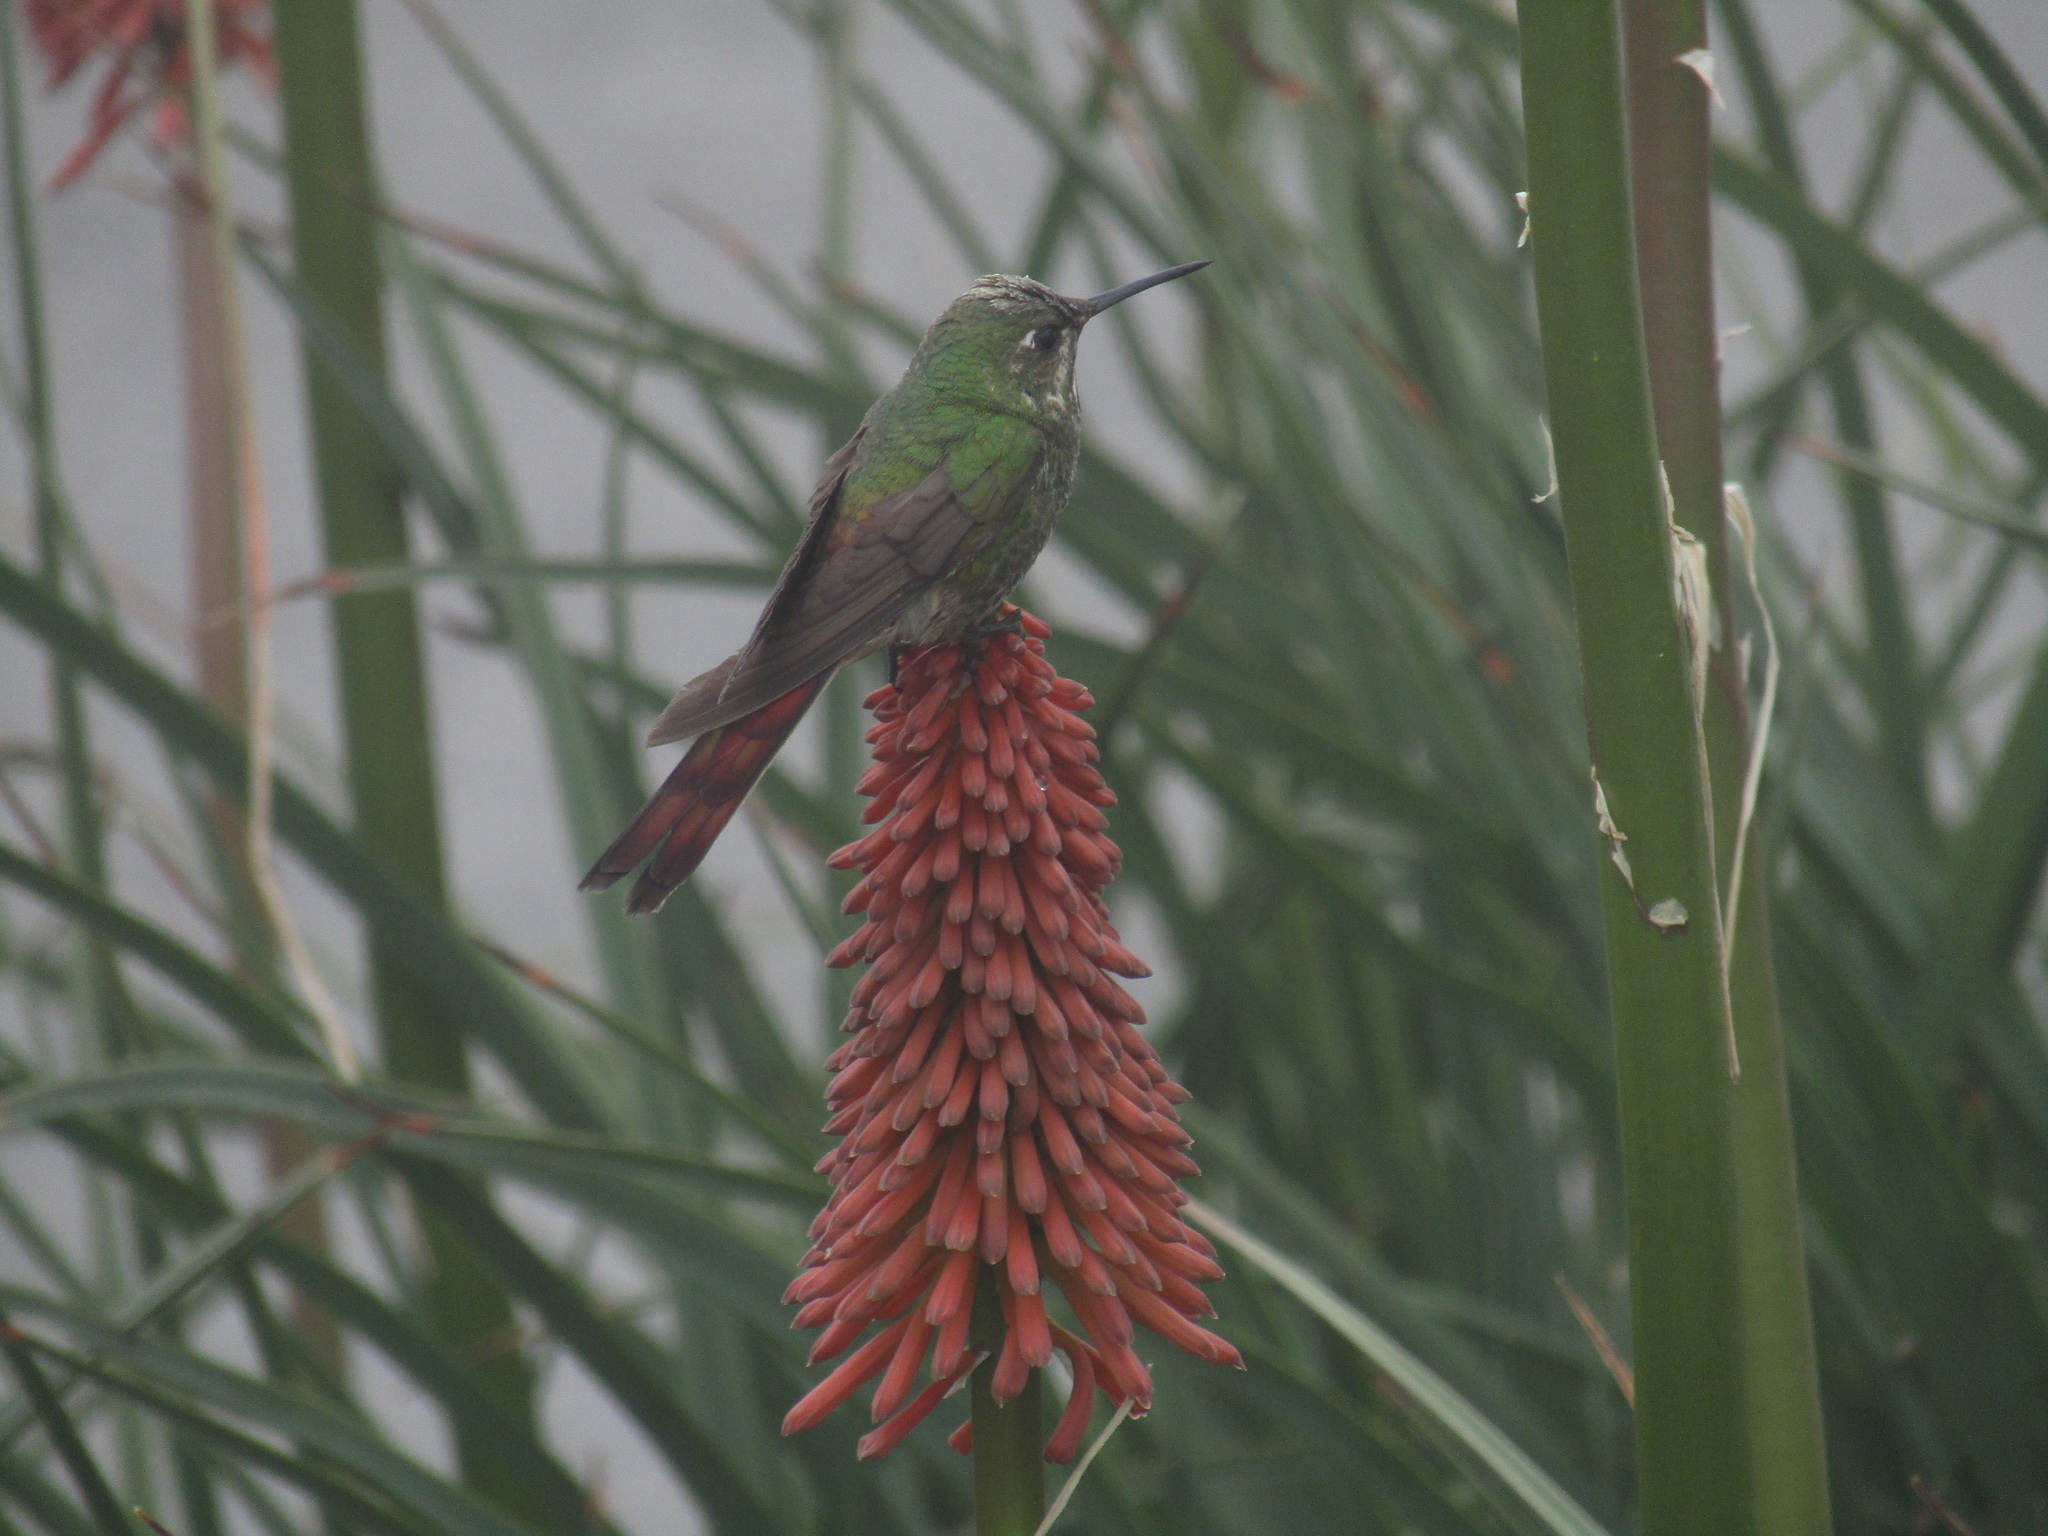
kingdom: Animalia
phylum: Chordata
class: Aves
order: Apodiformes
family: Trochilidae
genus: Sappho
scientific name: Sappho sparganurus
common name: Red-tailed comet
